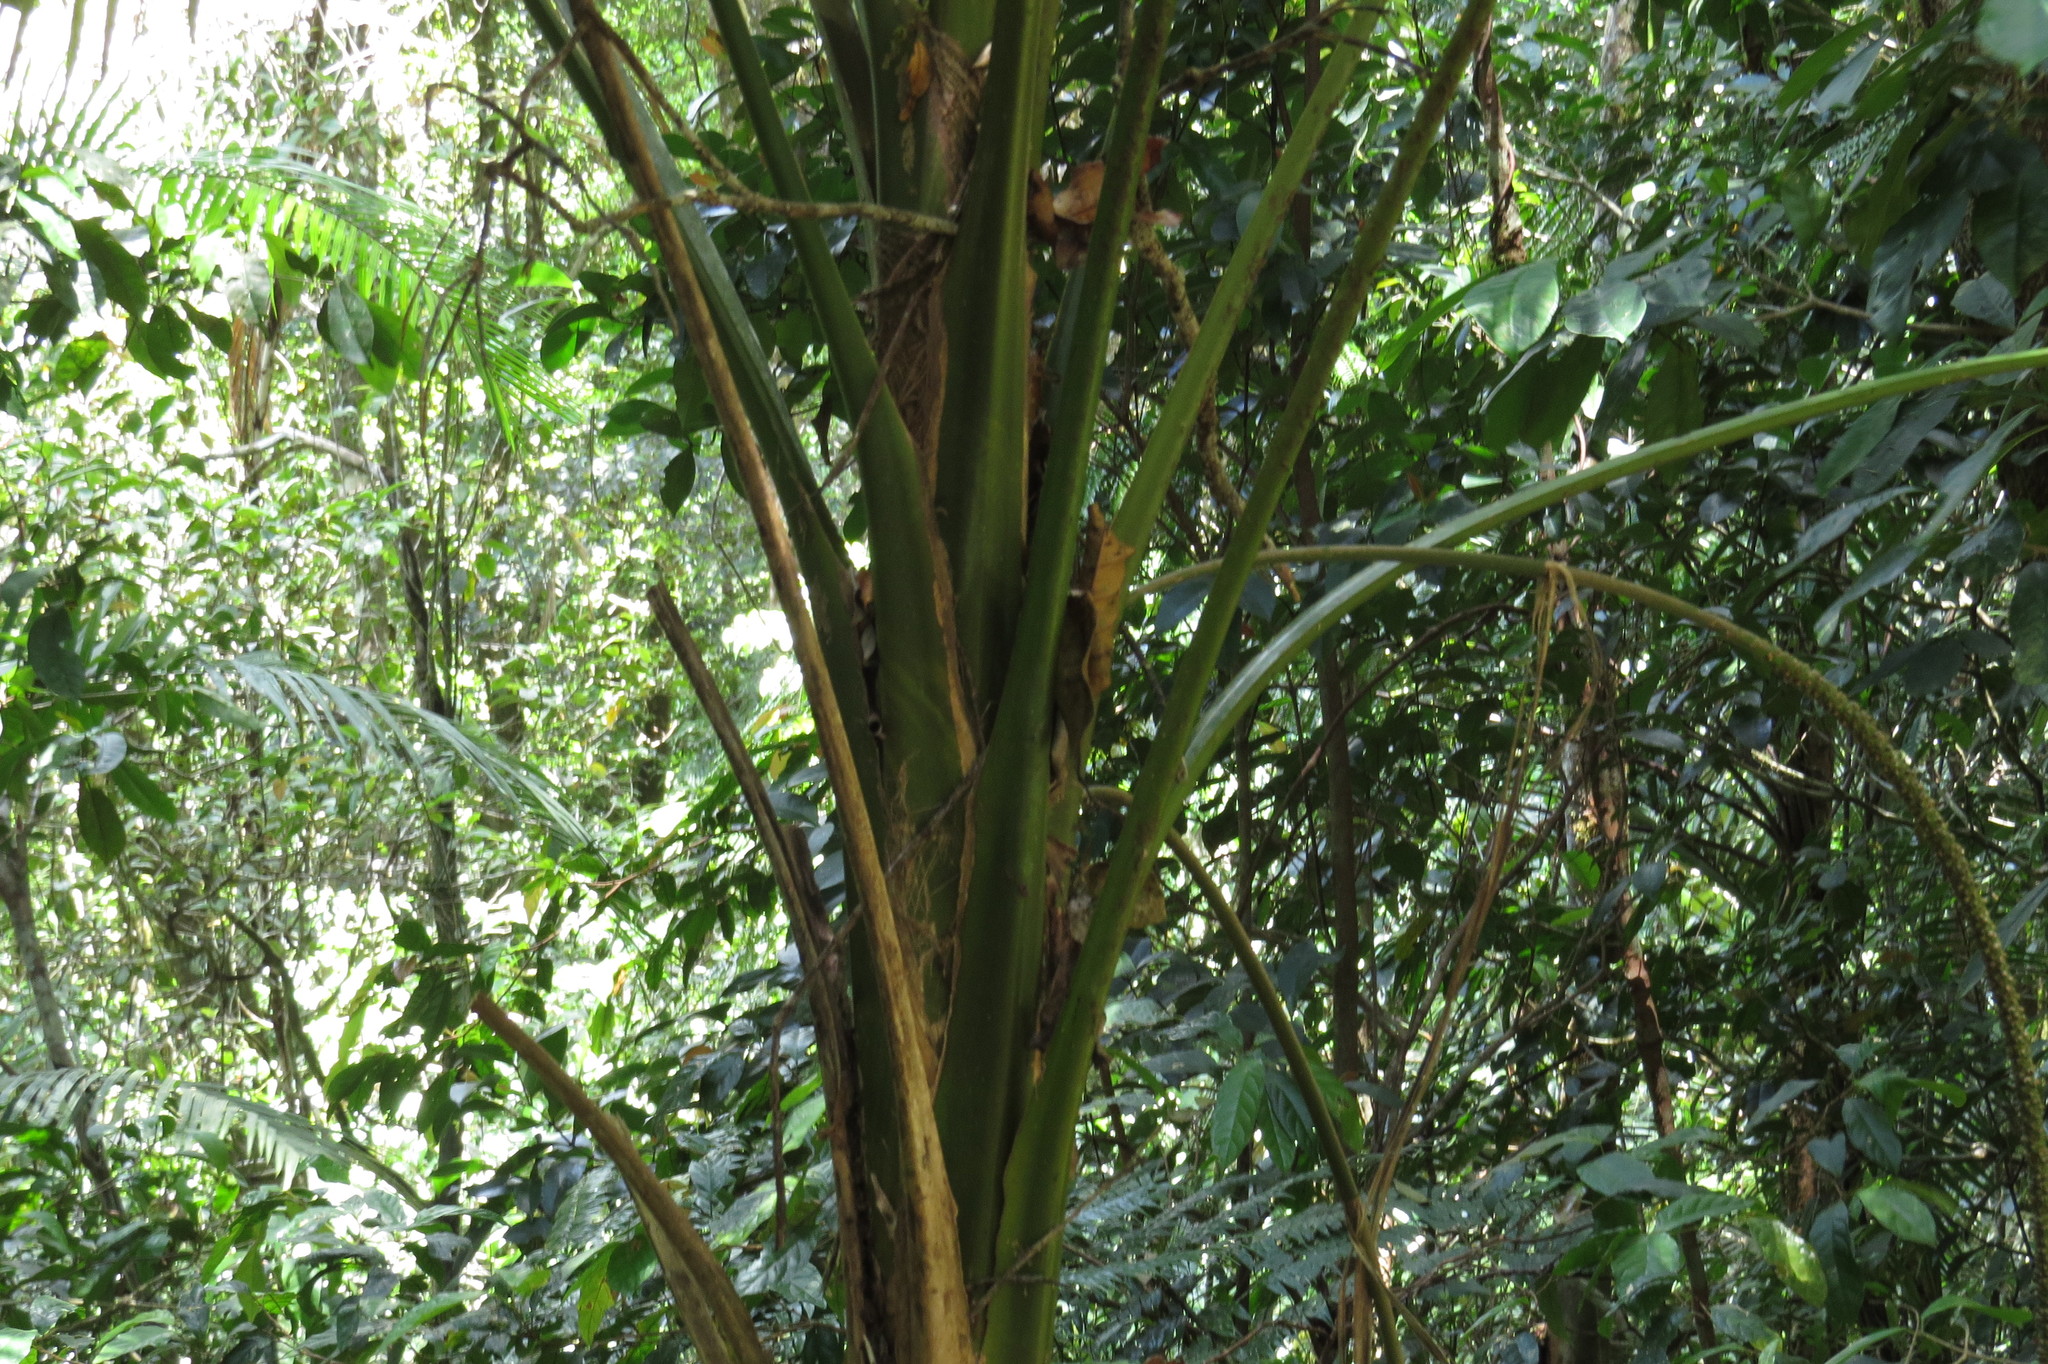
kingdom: Plantae
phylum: Tracheophyta
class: Liliopsida
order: Arecales
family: Arecaceae
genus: Laccospadix
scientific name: Laccospadix australasicus
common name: Mountain mist palm
